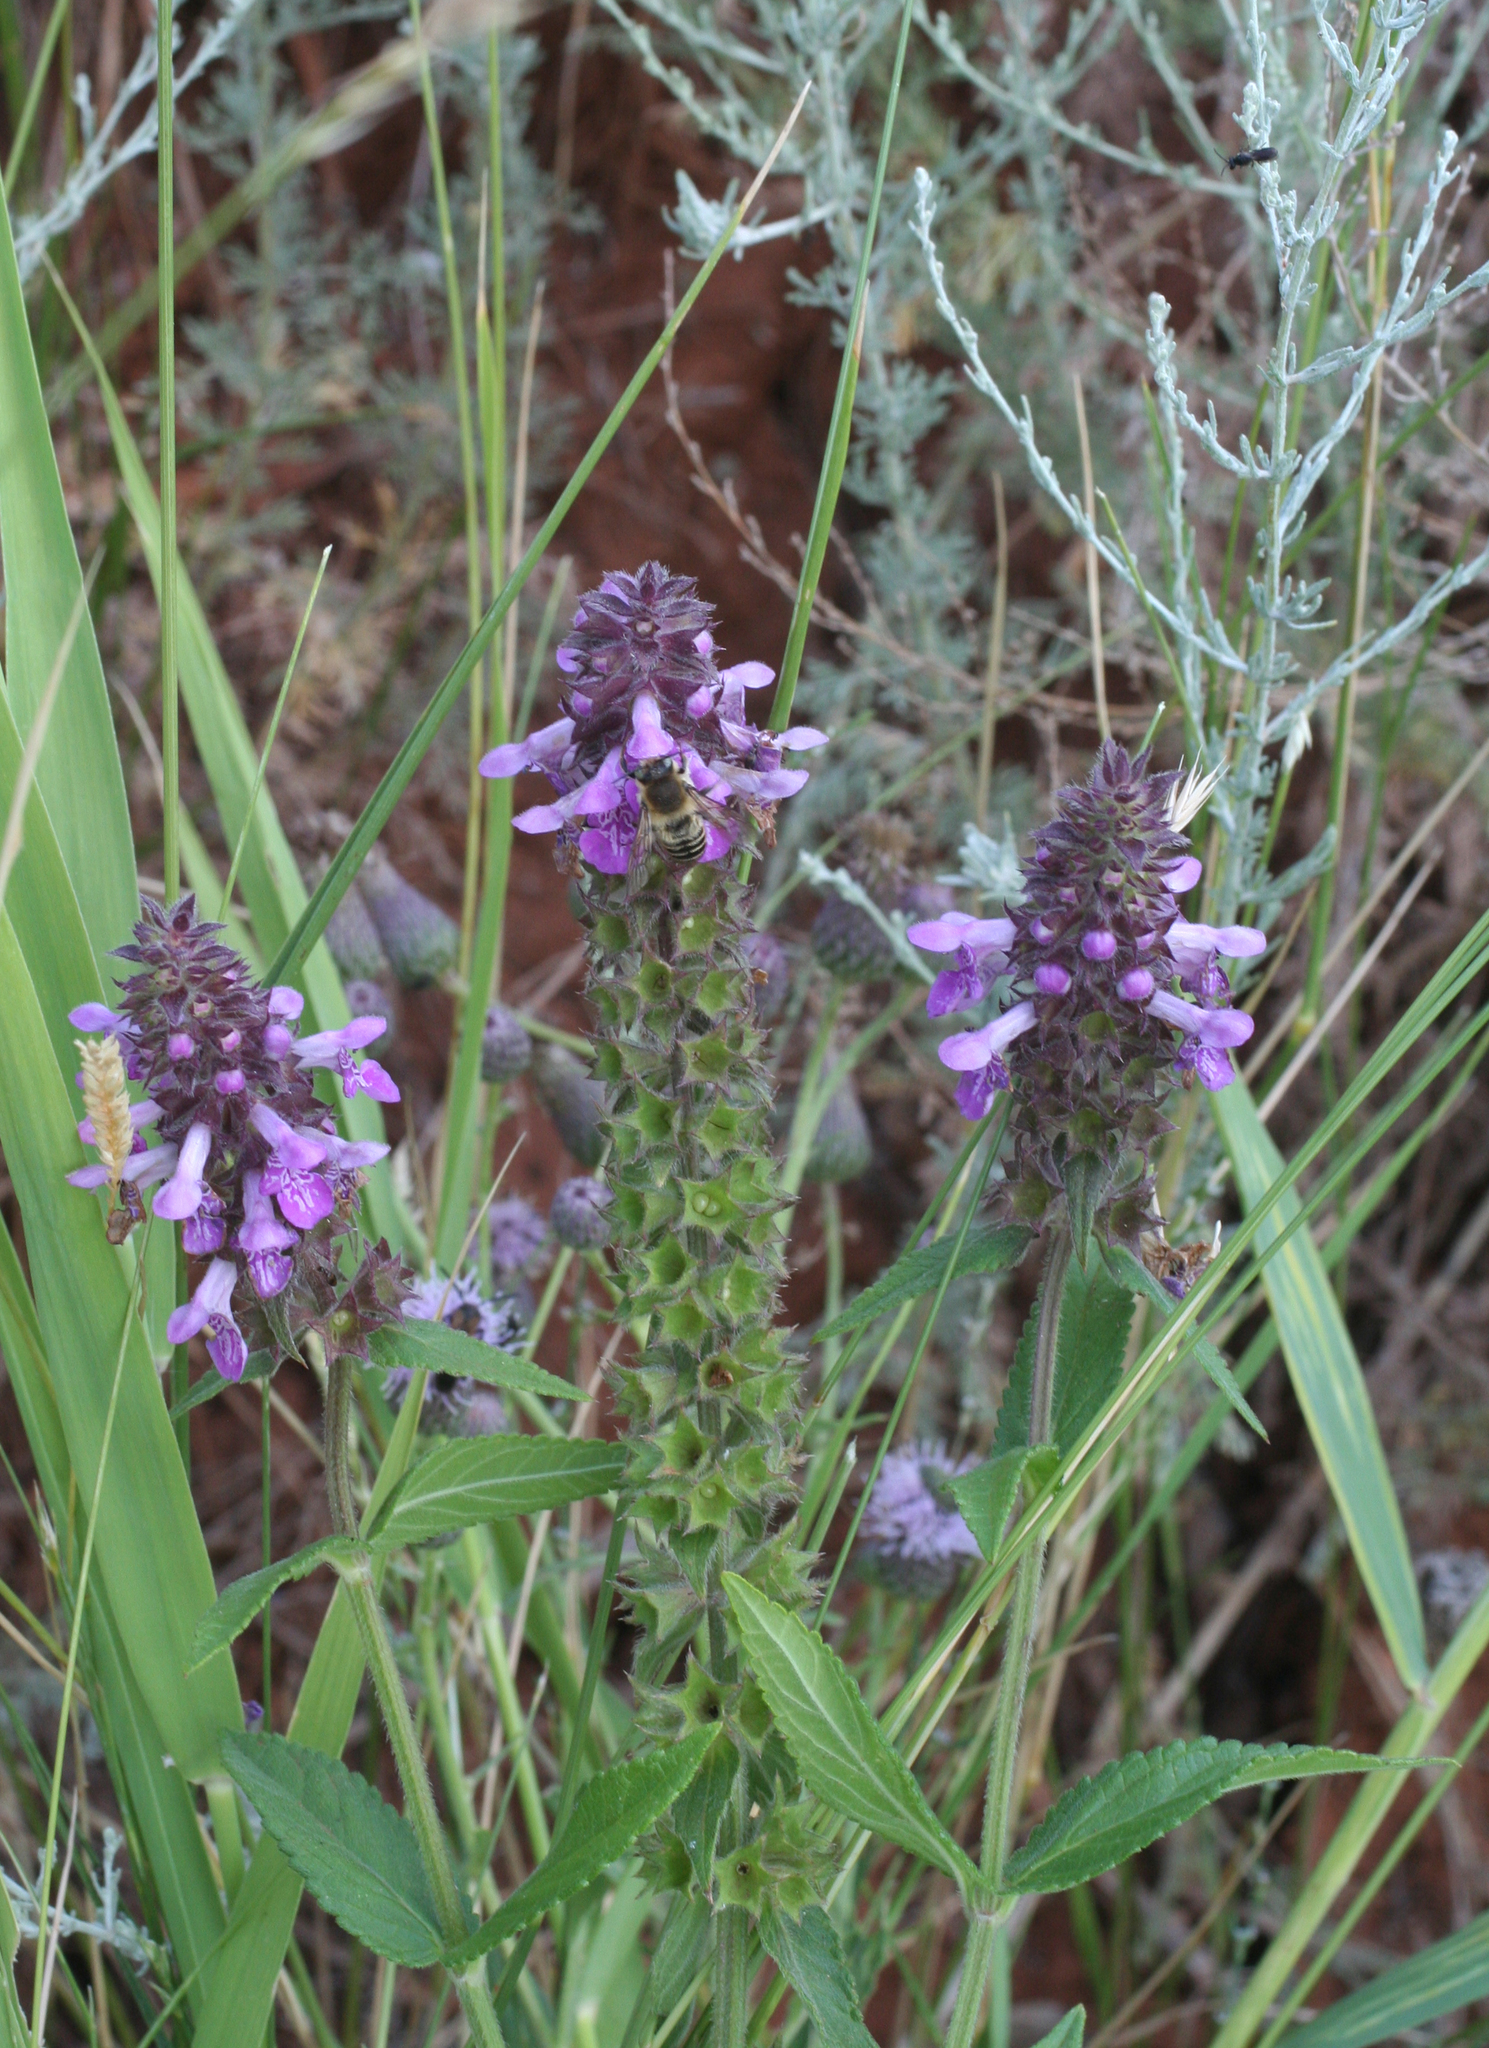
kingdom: Plantae
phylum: Tracheophyta
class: Magnoliopsida
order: Lamiales
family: Lamiaceae
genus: Stachys
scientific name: Stachys palustris
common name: Marsh woundwort
